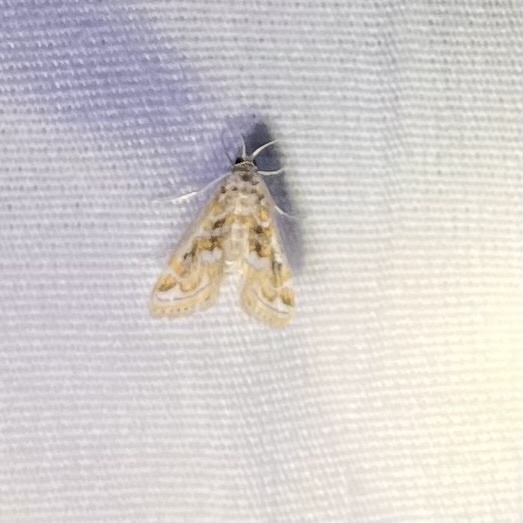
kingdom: Animalia
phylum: Arthropoda
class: Insecta
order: Lepidoptera
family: Crambidae
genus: Parapoynx
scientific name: Parapoynx diminutalis
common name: Hydrilla leafcutter
